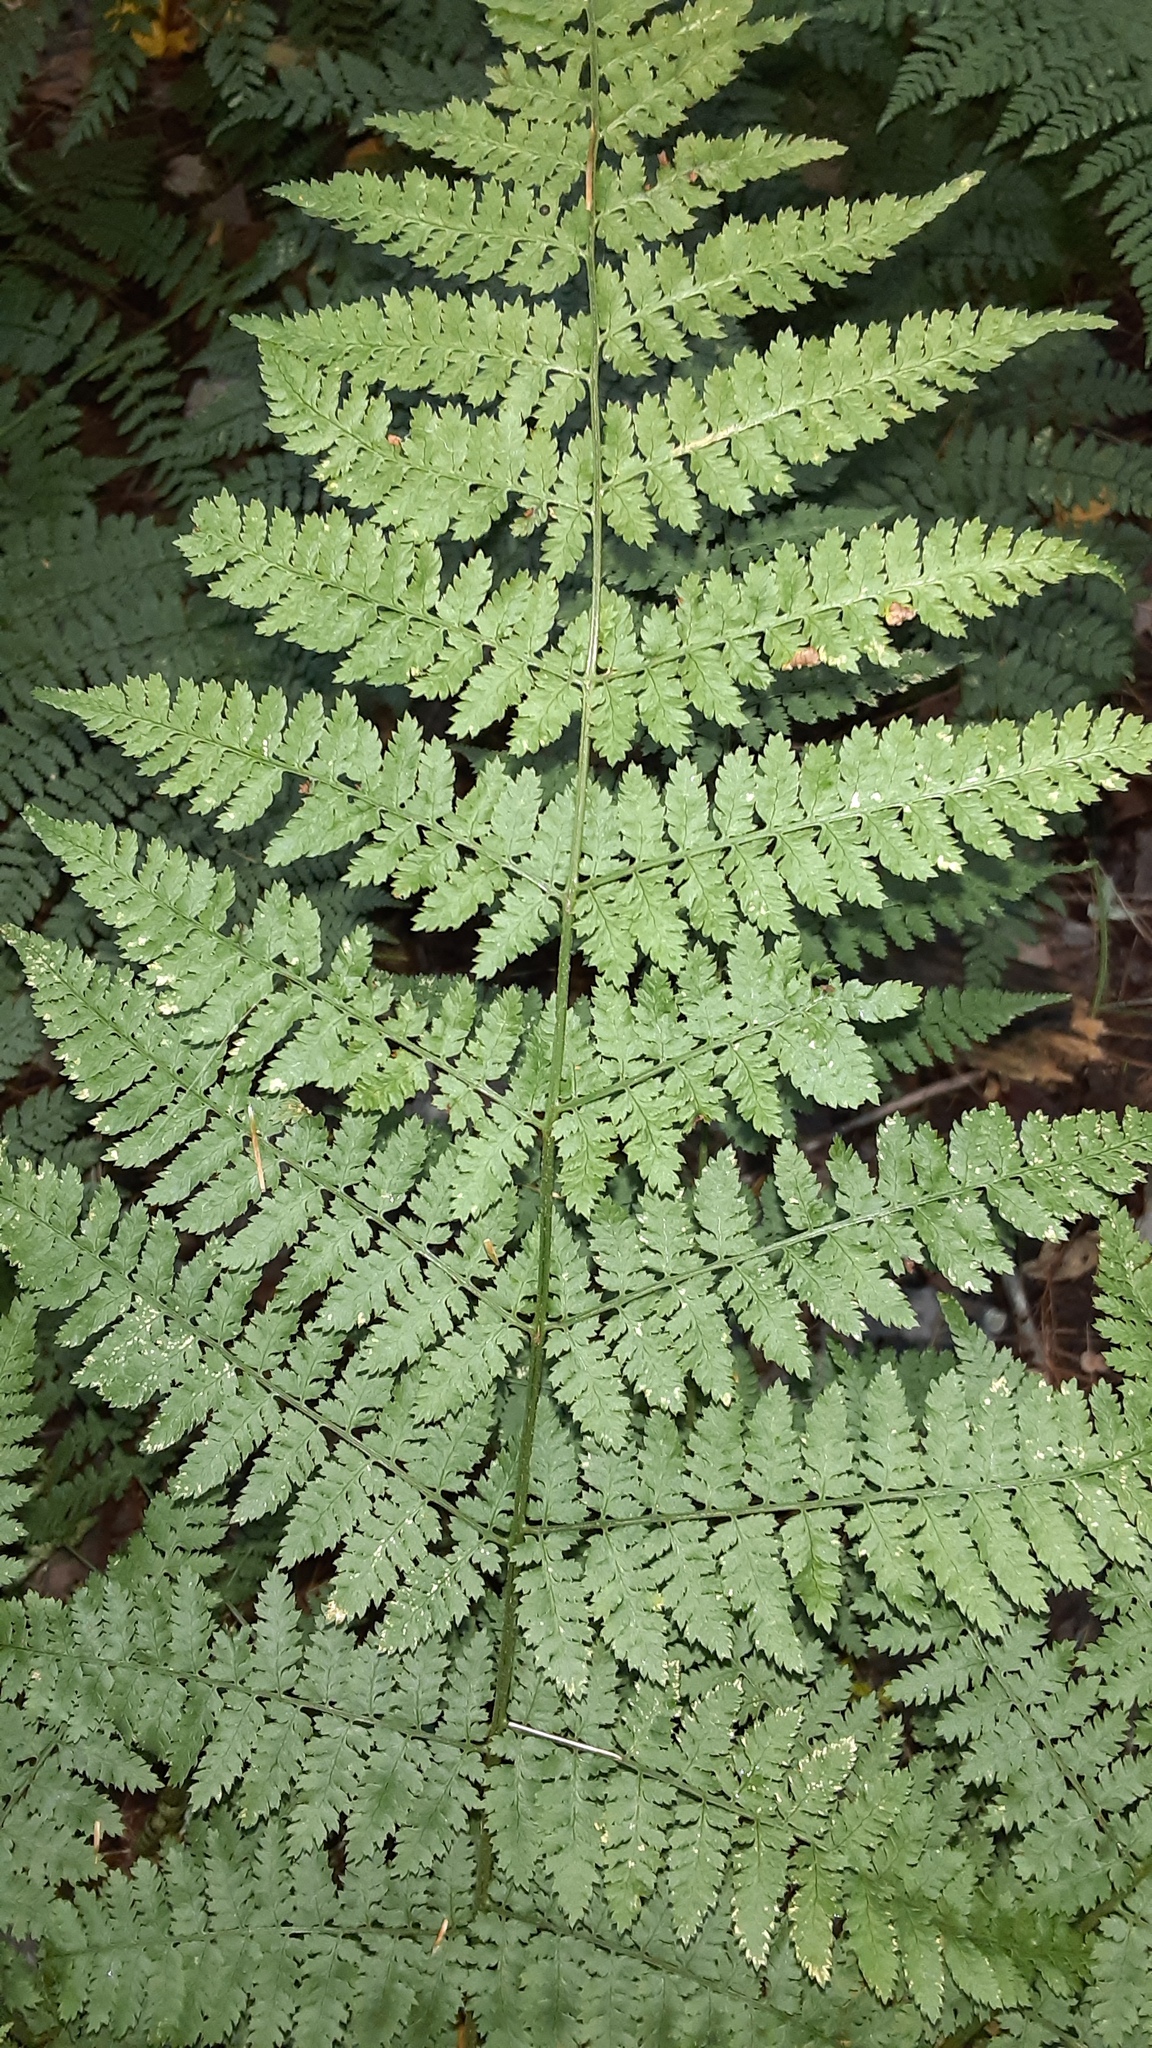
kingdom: Plantae
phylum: Tracheophyta
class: Polypodiopsida
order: Polypodiales
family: Dryopteridaceae
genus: Dryopteris
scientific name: Dryopteris intermedia
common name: Evergreen wood fern
